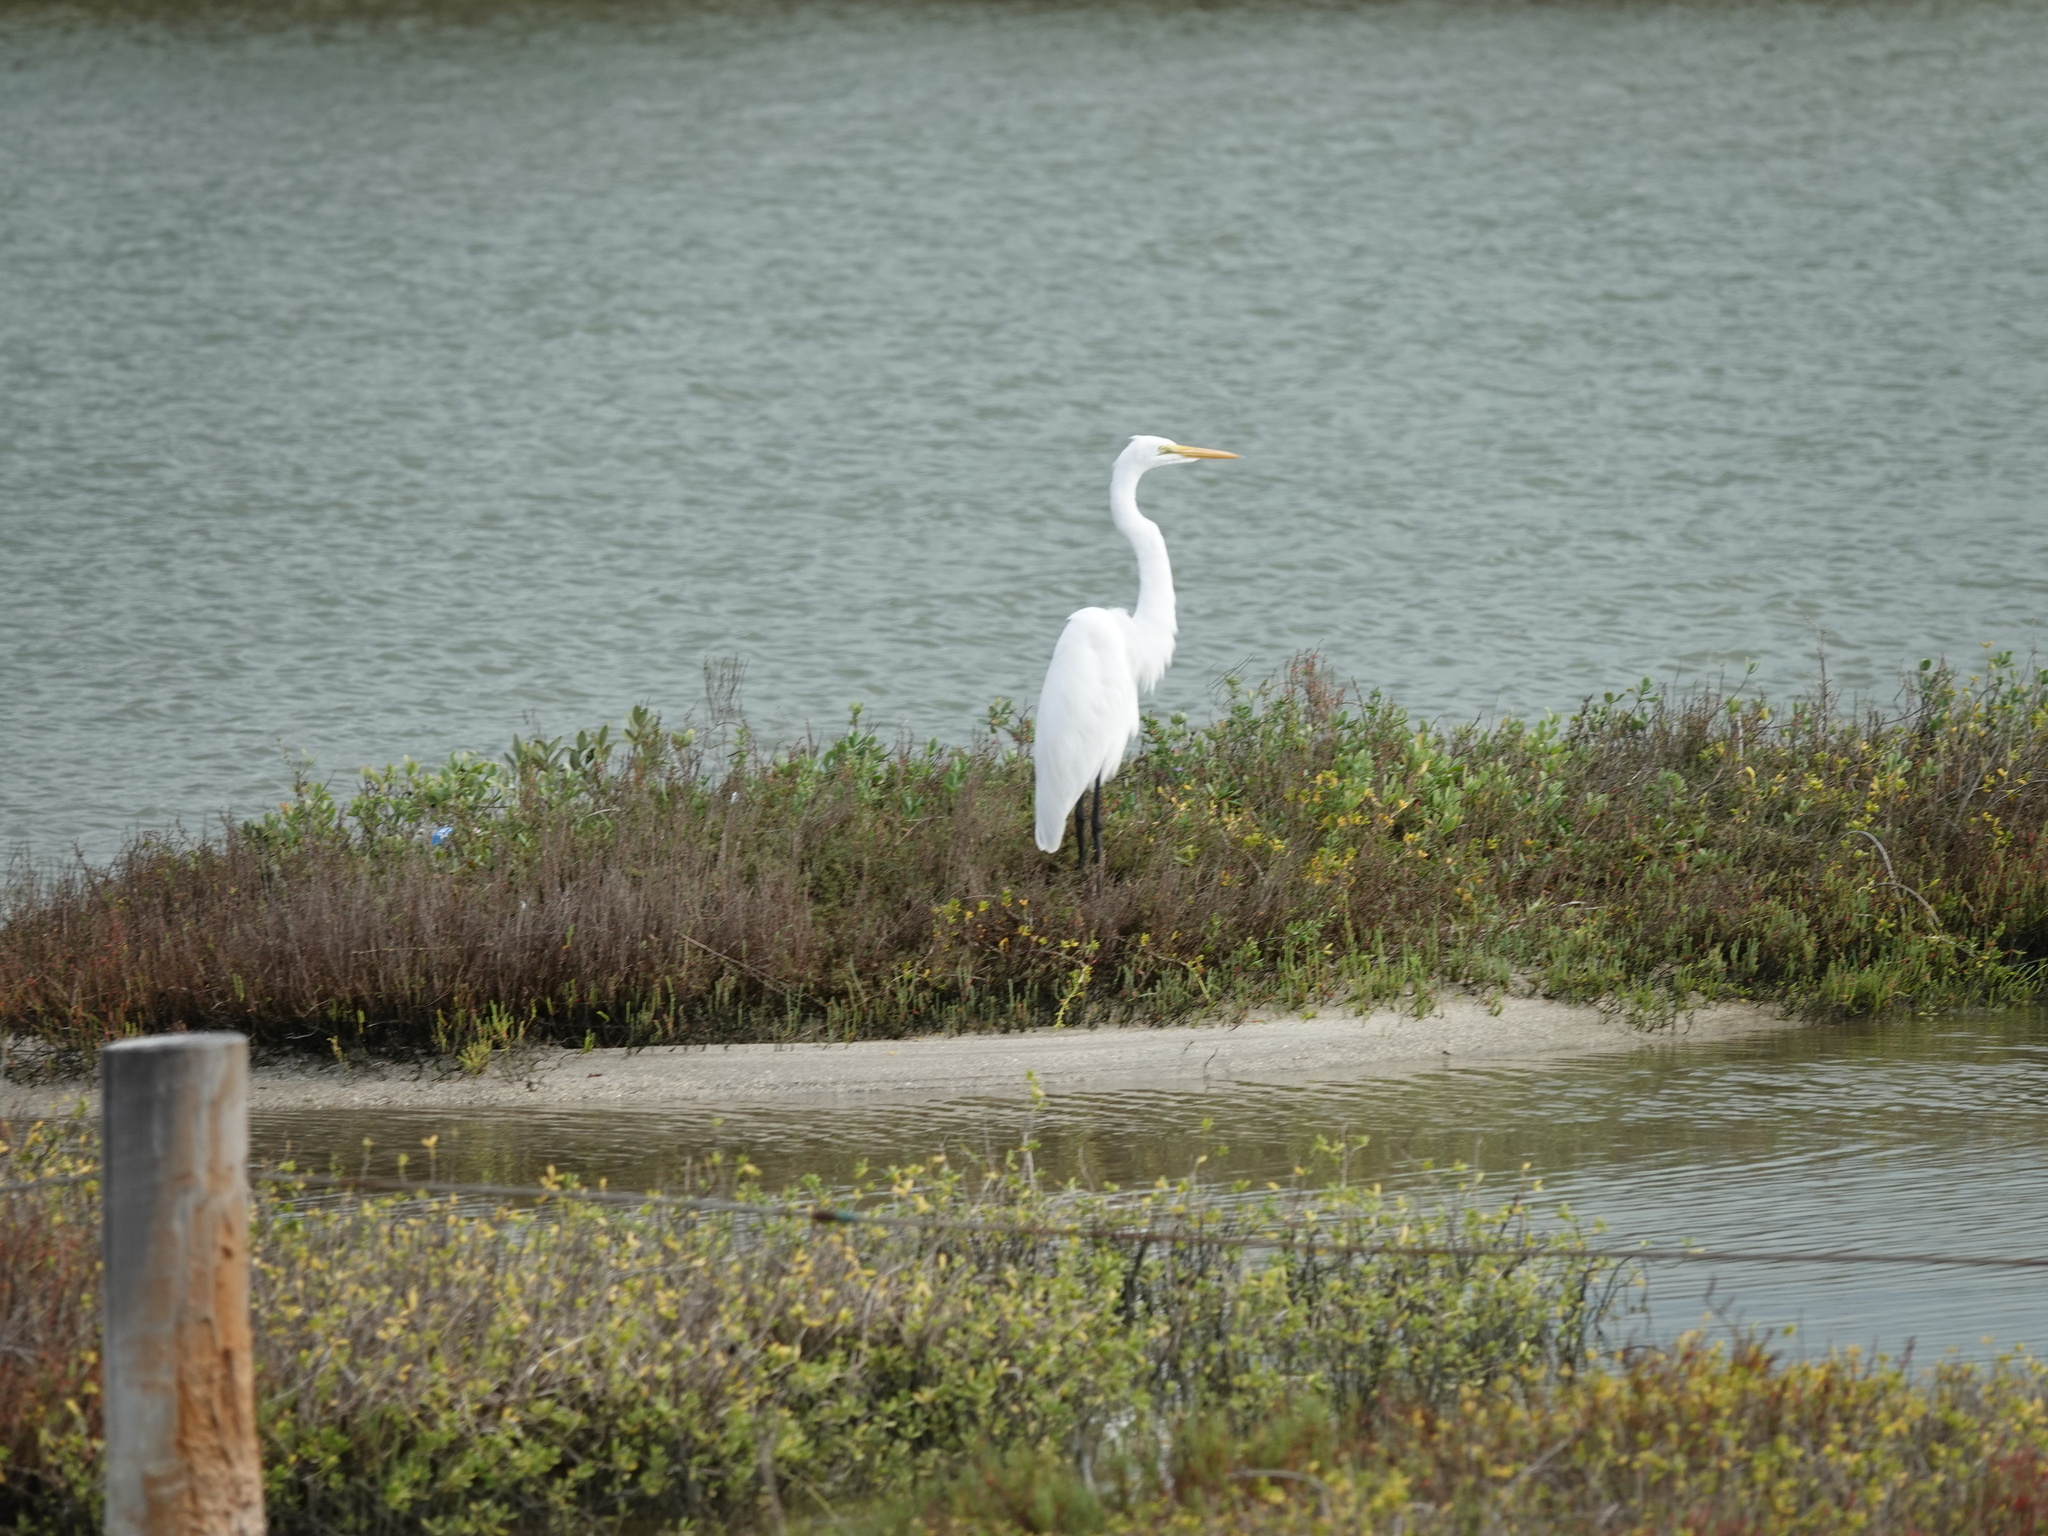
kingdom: Animalia
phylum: Chordata
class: Aves
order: Pelecaniformes
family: Ardeidae
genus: Ardea
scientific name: Ardea alba
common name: Great egret
